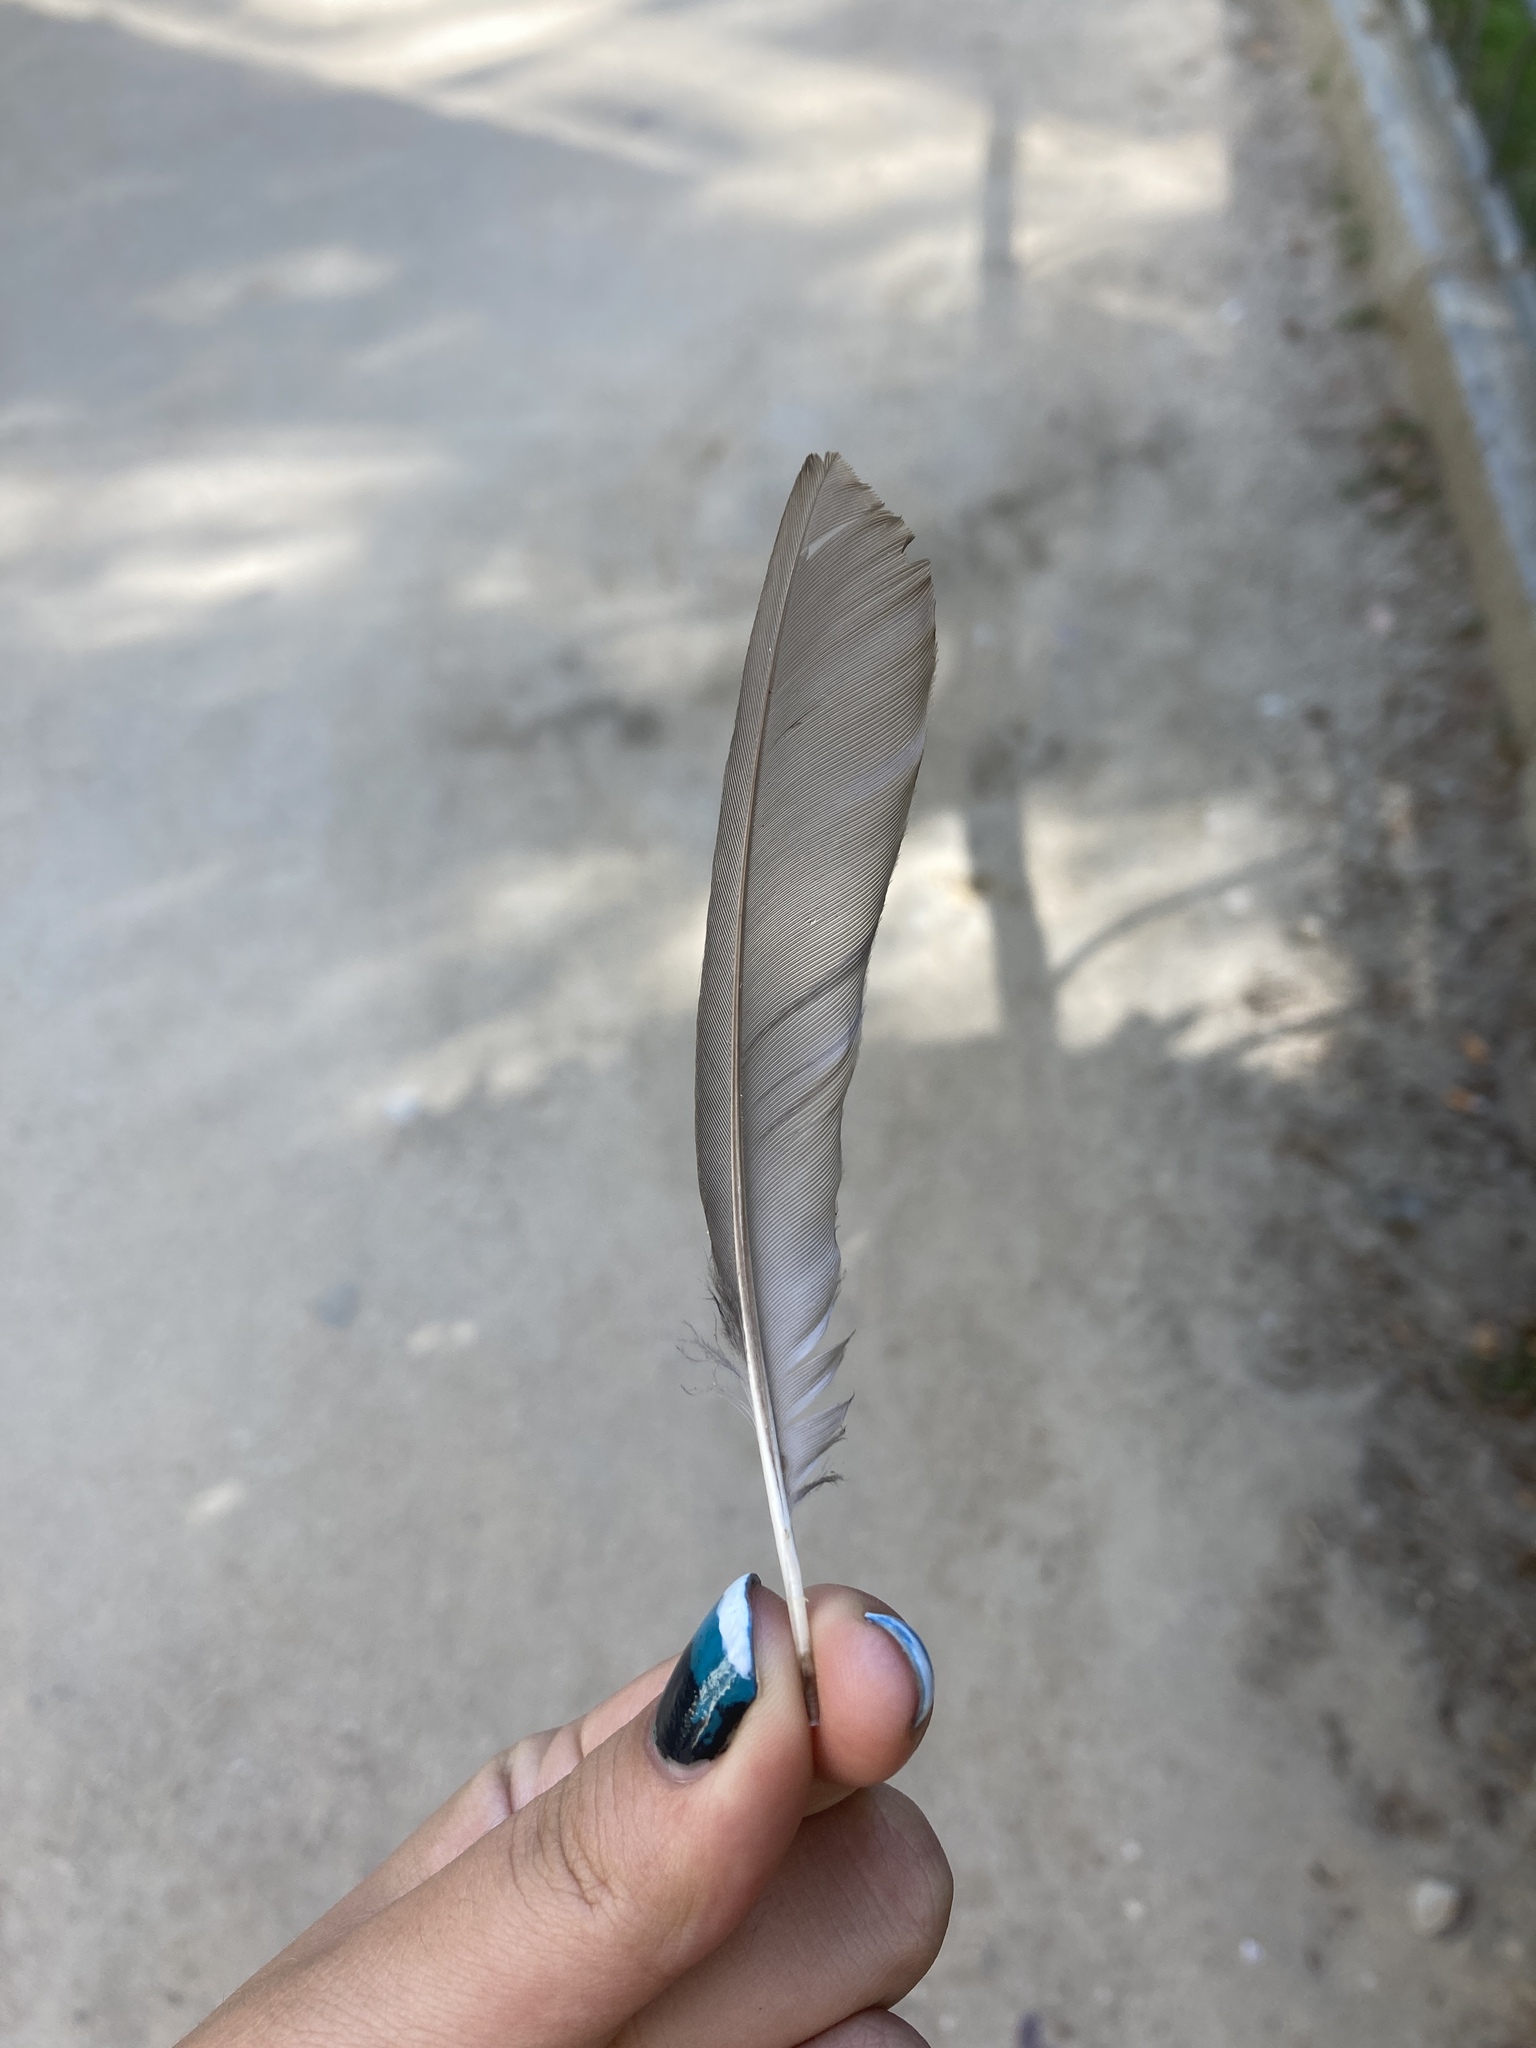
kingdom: Animalia
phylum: Chordata
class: Aves
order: Passeriformes
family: Turdidae
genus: Turdus
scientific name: Turdus merula
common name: Common blackbird
